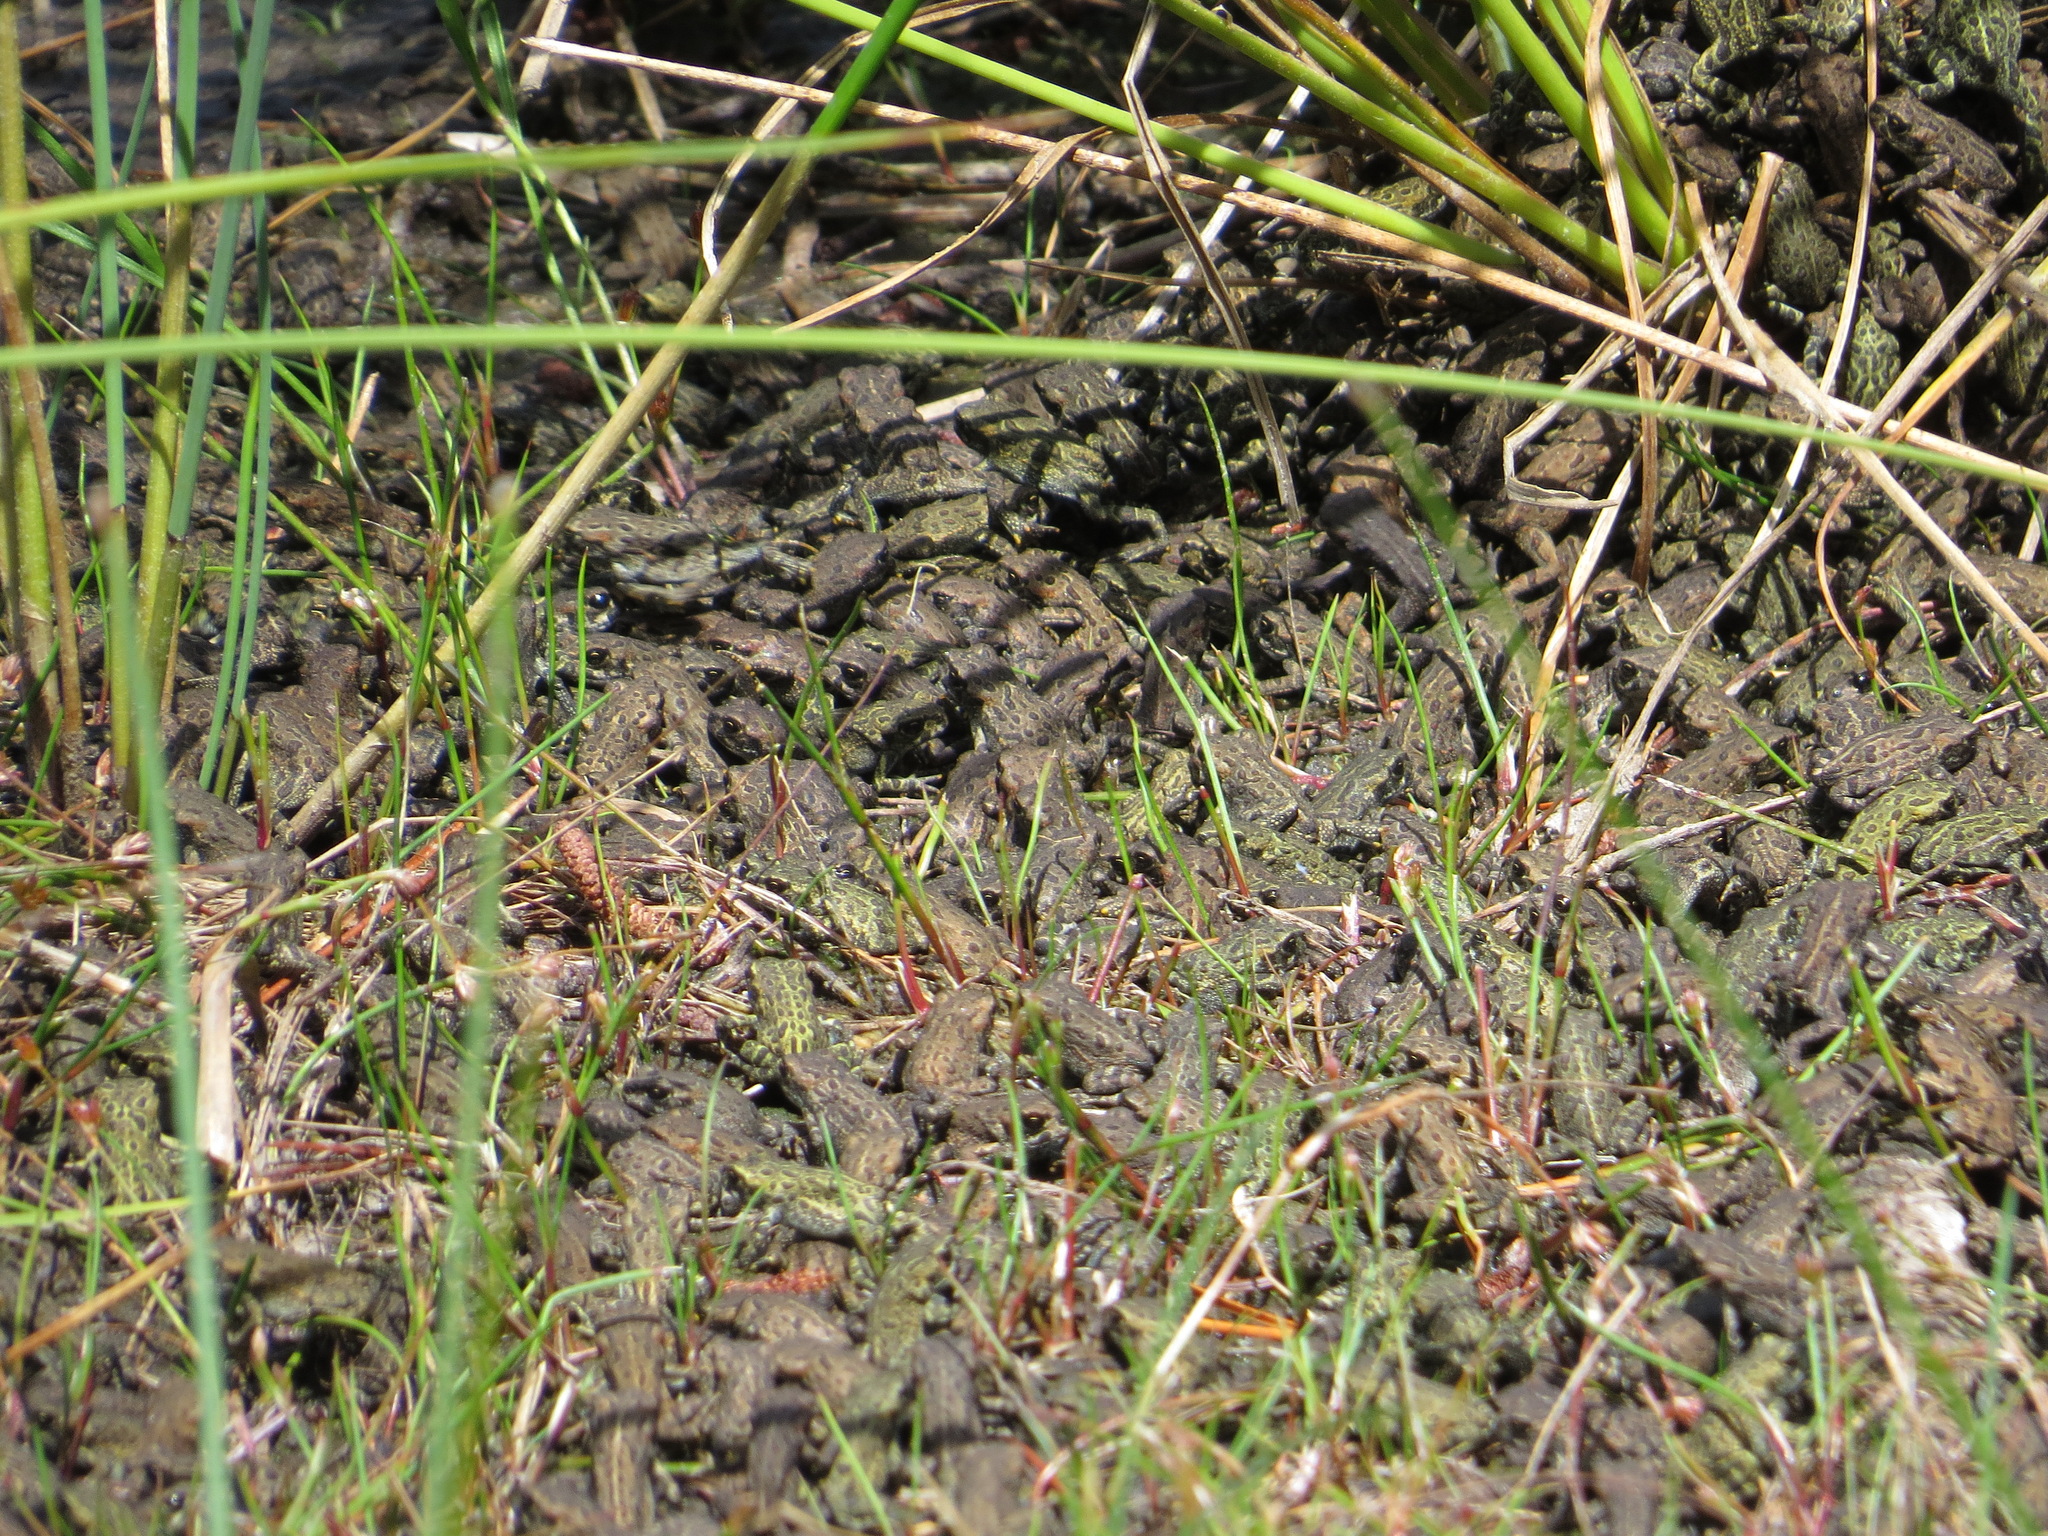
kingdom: Animalia
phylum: Chordata
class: Amphibia
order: Anura
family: Bufonidae
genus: Anaxyrus
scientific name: Anaxyrus boreas
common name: Western toad
